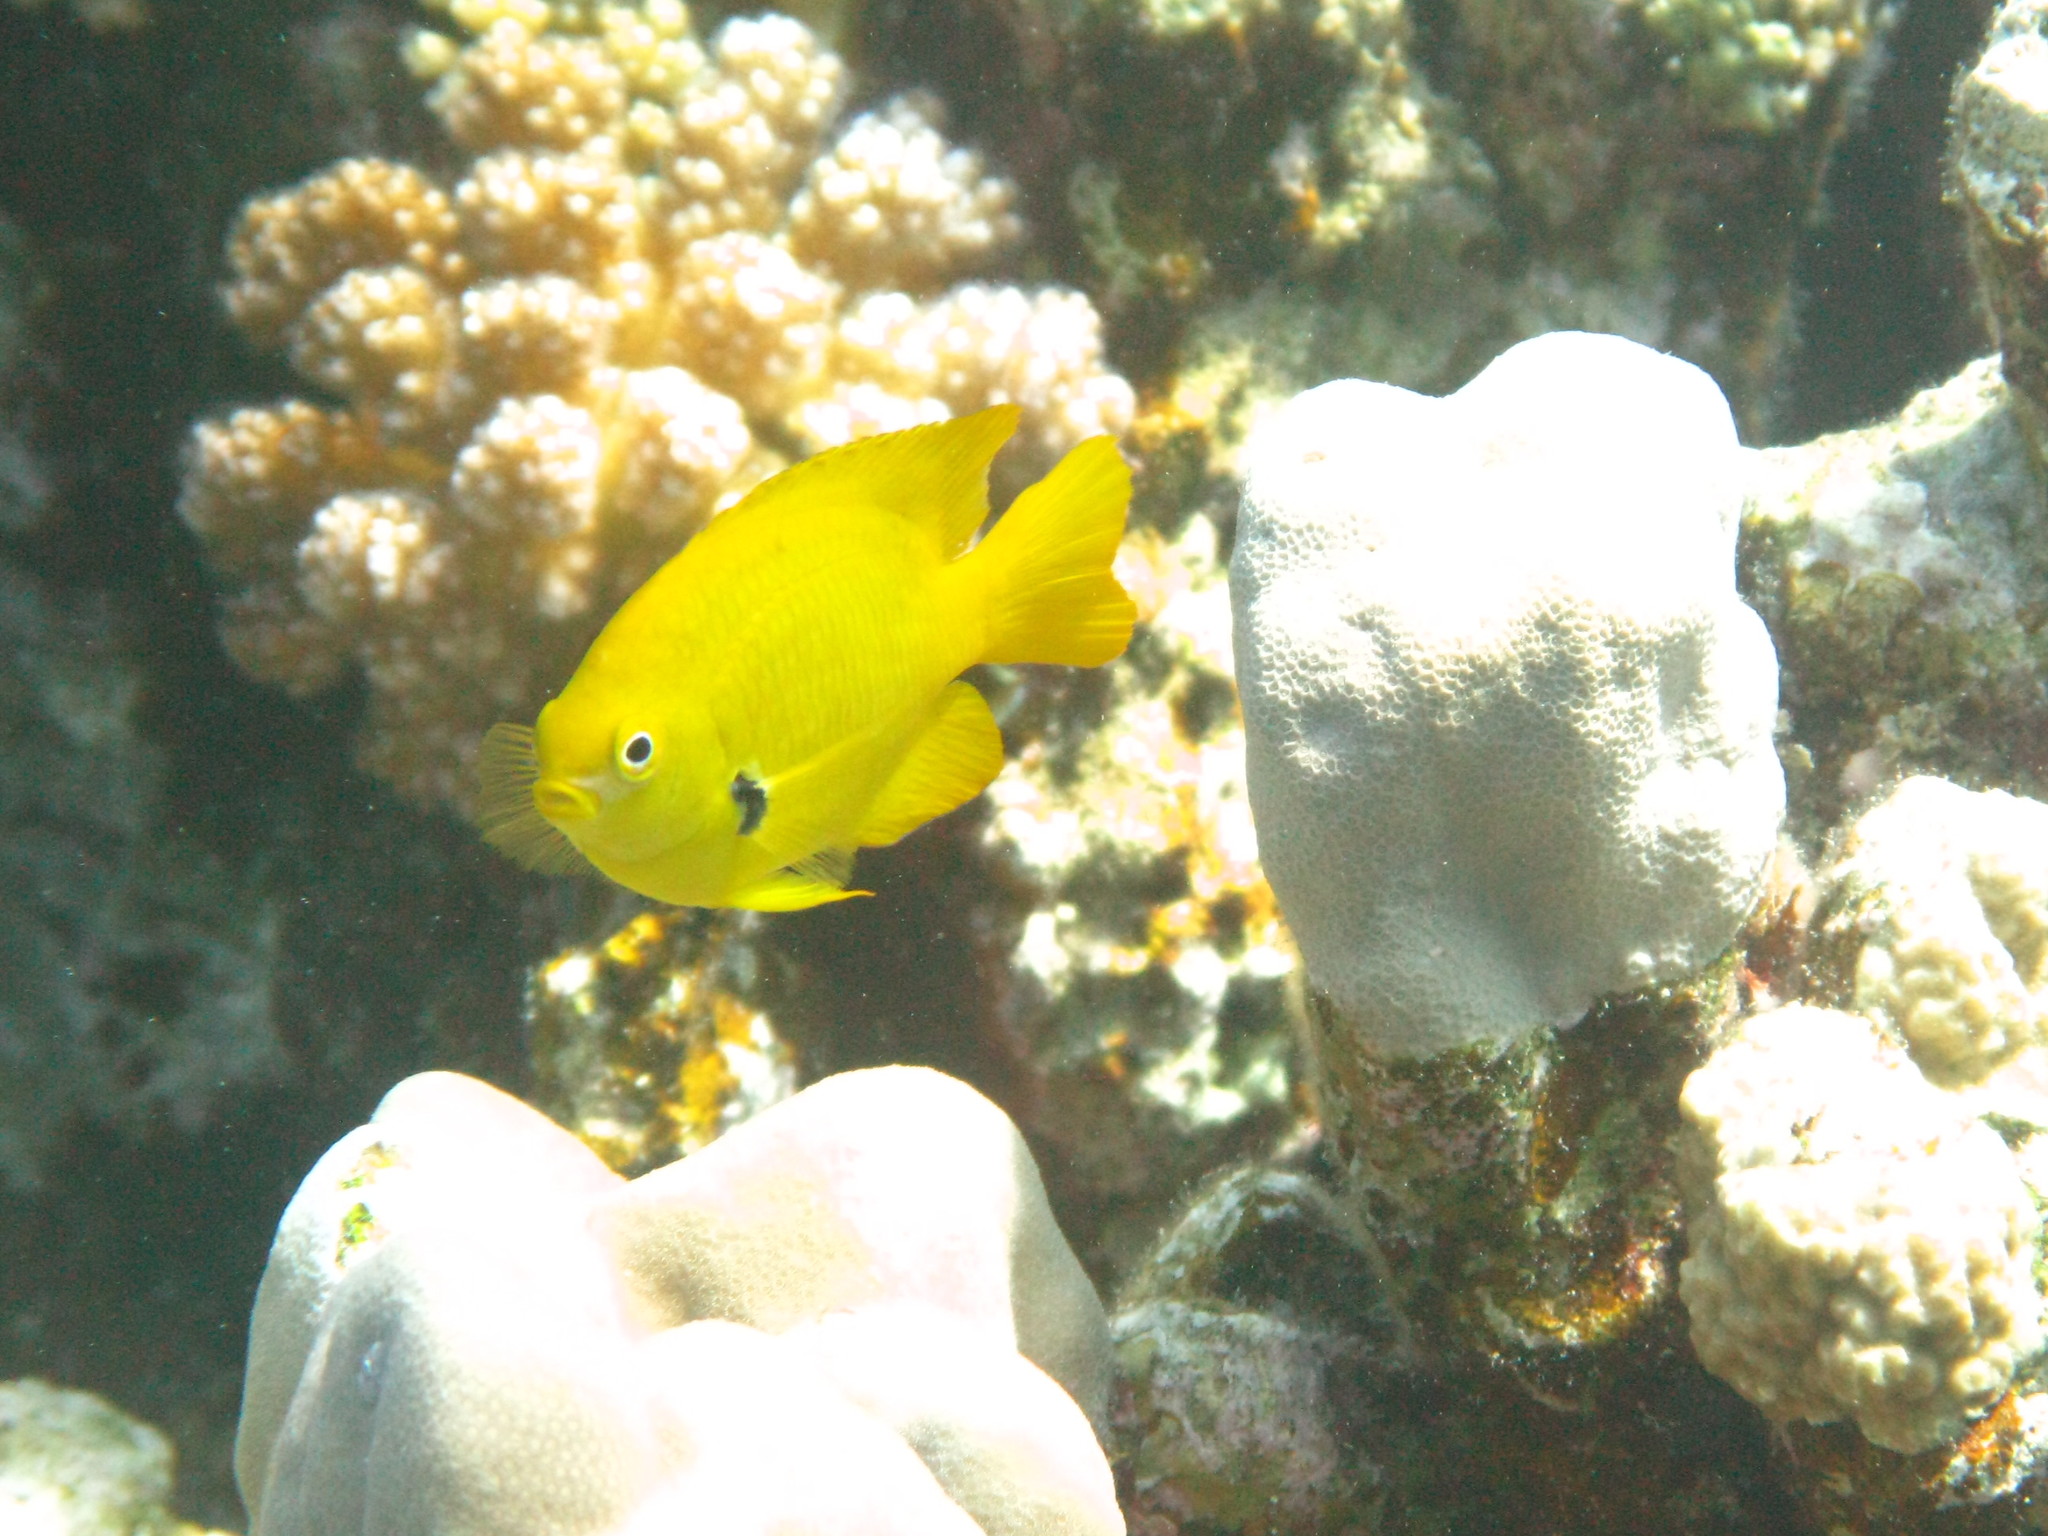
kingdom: Animalia
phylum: Chordata
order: Perciformes
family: Pomacentridae
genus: Pomacentrus
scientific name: Pomacentrus sulfureus
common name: Sulfur damsel
